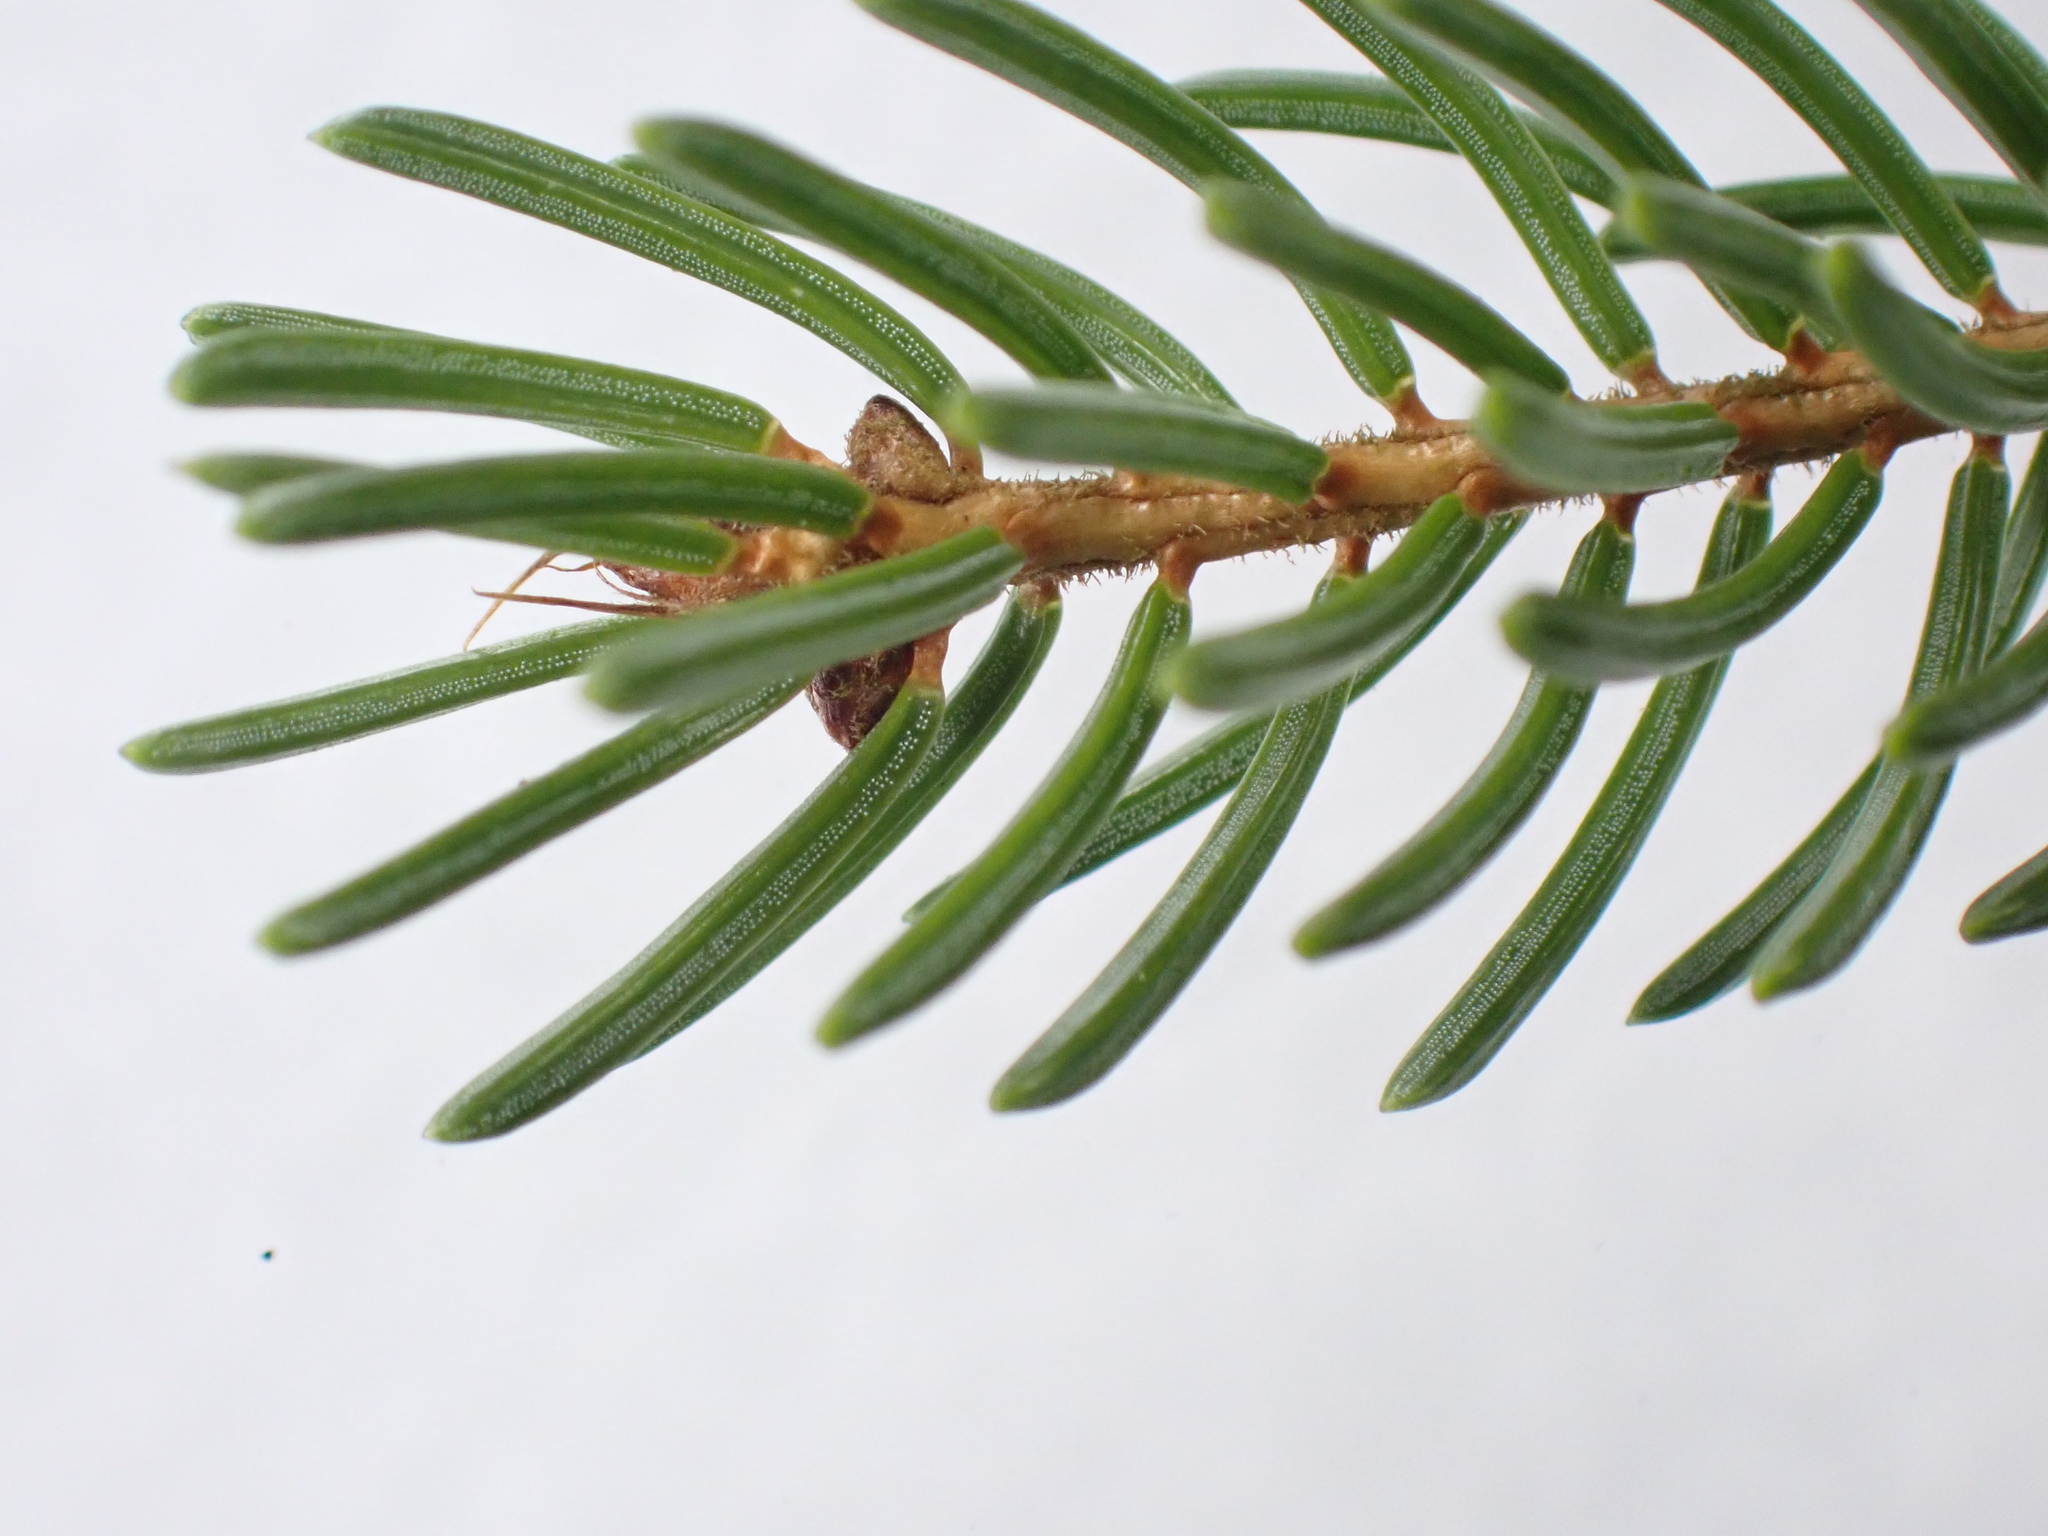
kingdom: Plantae
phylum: Tracheophyta
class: Pinopsida
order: Pinales
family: Pinaceae
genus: Picea
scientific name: Picea rubens
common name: Red spruce
